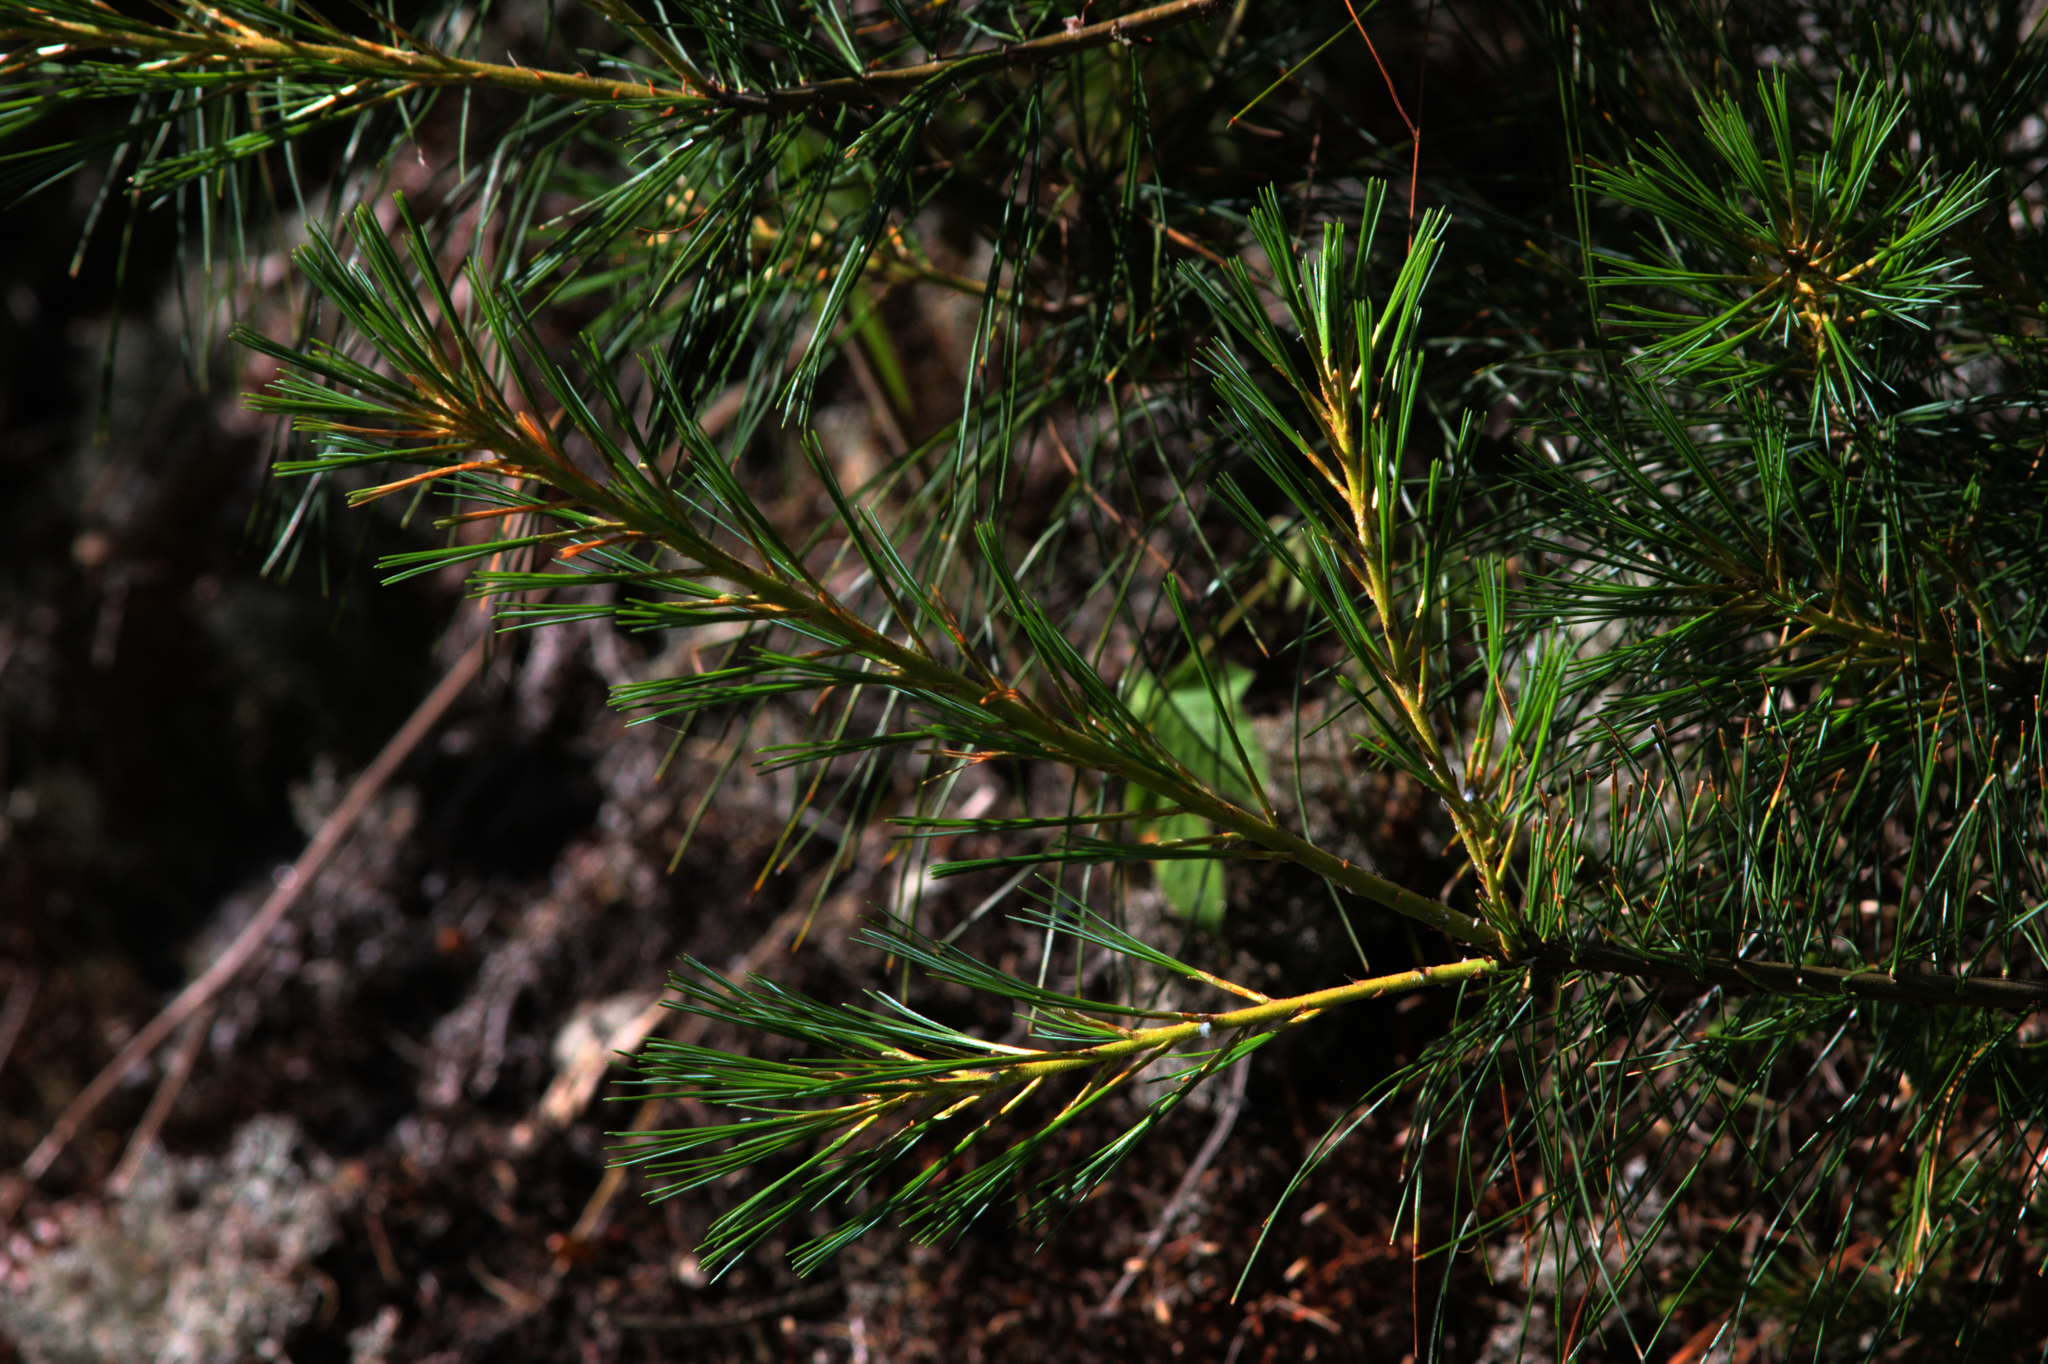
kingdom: Plantae
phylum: Tracheophyta
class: Pinopsida
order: Pinales
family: Pinaceae
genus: Pinus
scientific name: Pinus strobus
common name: Weymouth pine
